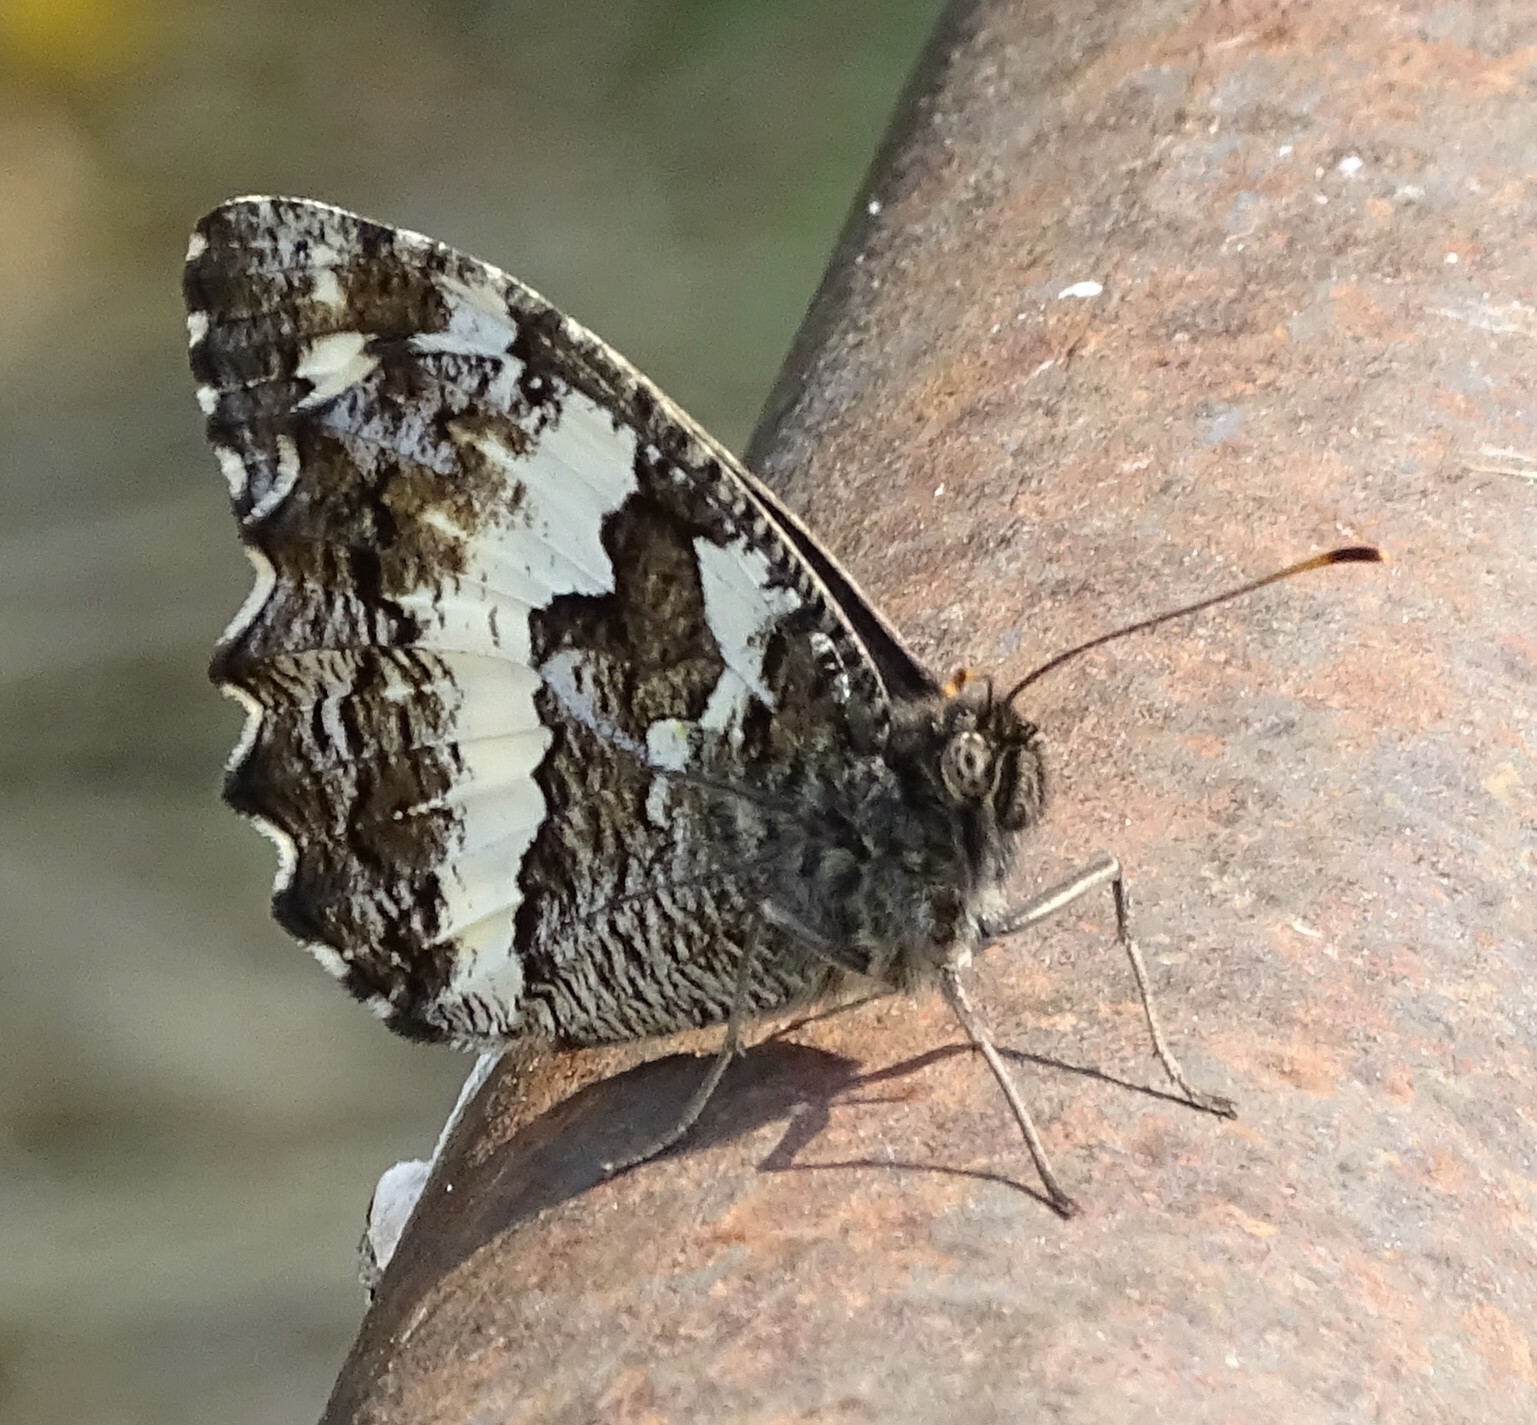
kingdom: Animalia
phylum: Arthropoda
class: Insecta
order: Lepidoptera
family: Lycaenidae
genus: Loweia
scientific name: Loweia tityrus
